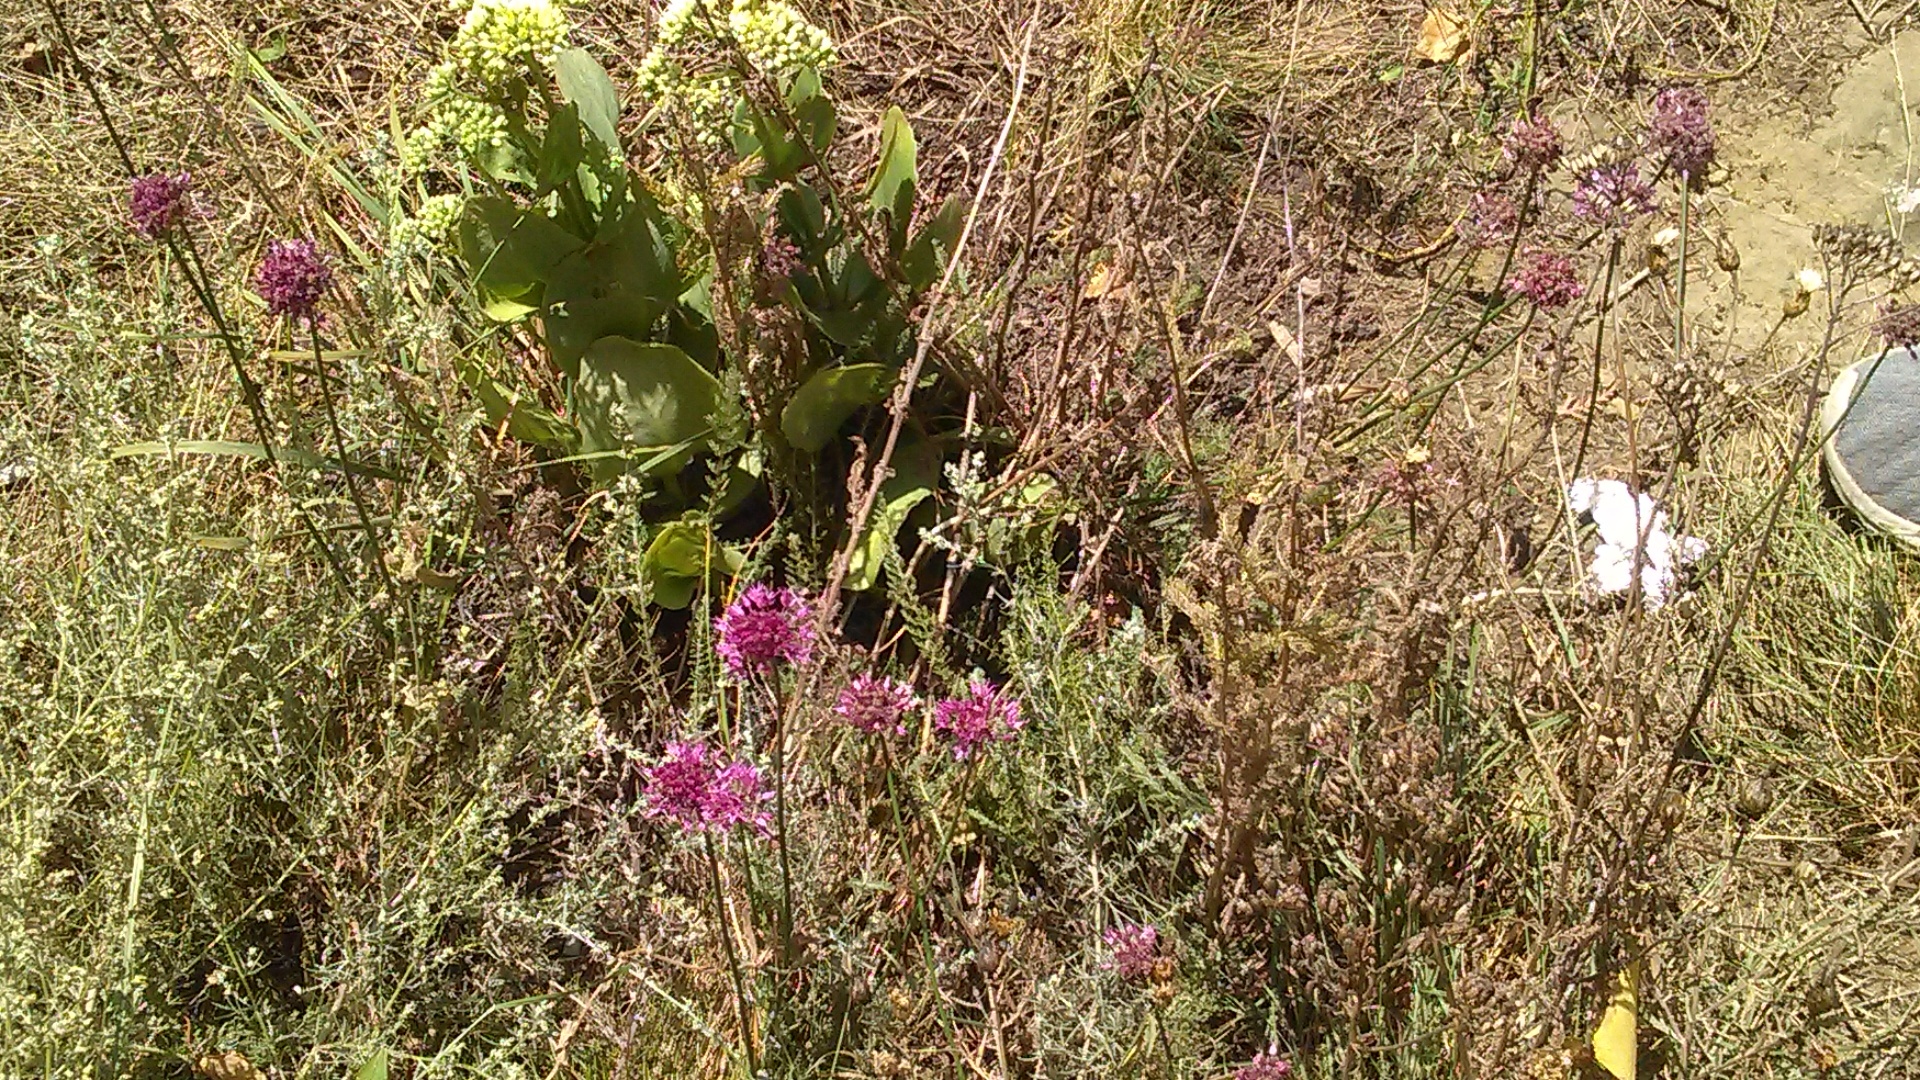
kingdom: Plantae
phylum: Tracheophyta
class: Liliopsida
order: Asparagales
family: Amaryllidaceae
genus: Allium
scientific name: Allium saxatile
